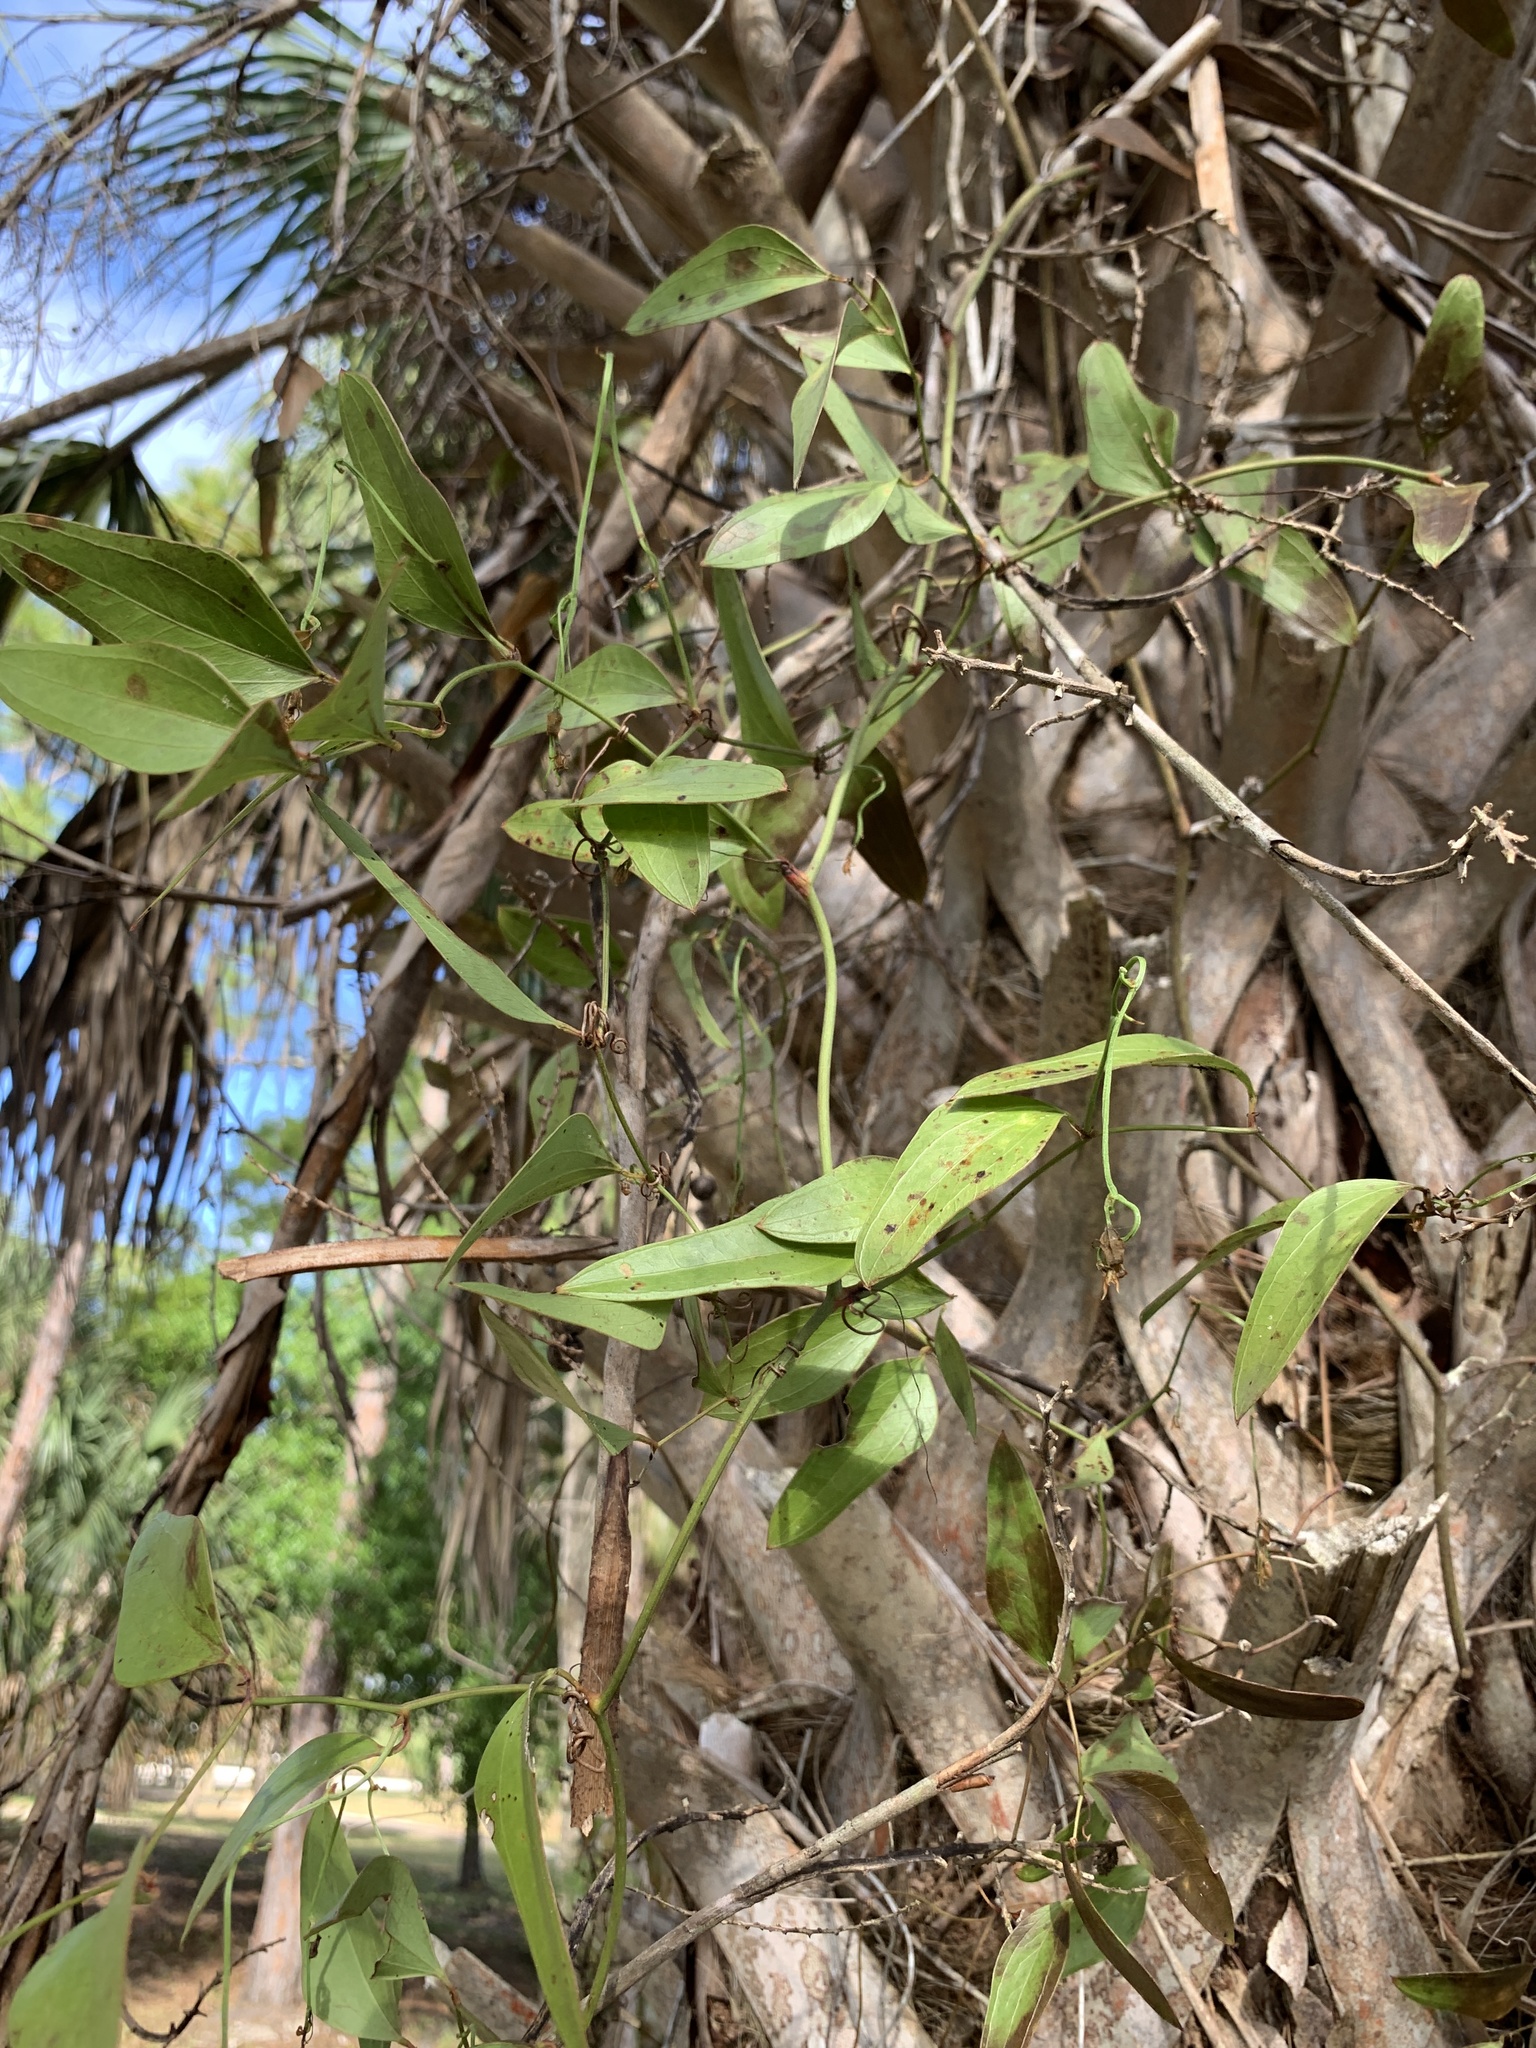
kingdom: Plantae
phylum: Tracheophyta
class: Liliopsida
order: Liliales
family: Smilacaceae
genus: Smilax
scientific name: Smilax auriculata
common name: Wild bamboo
